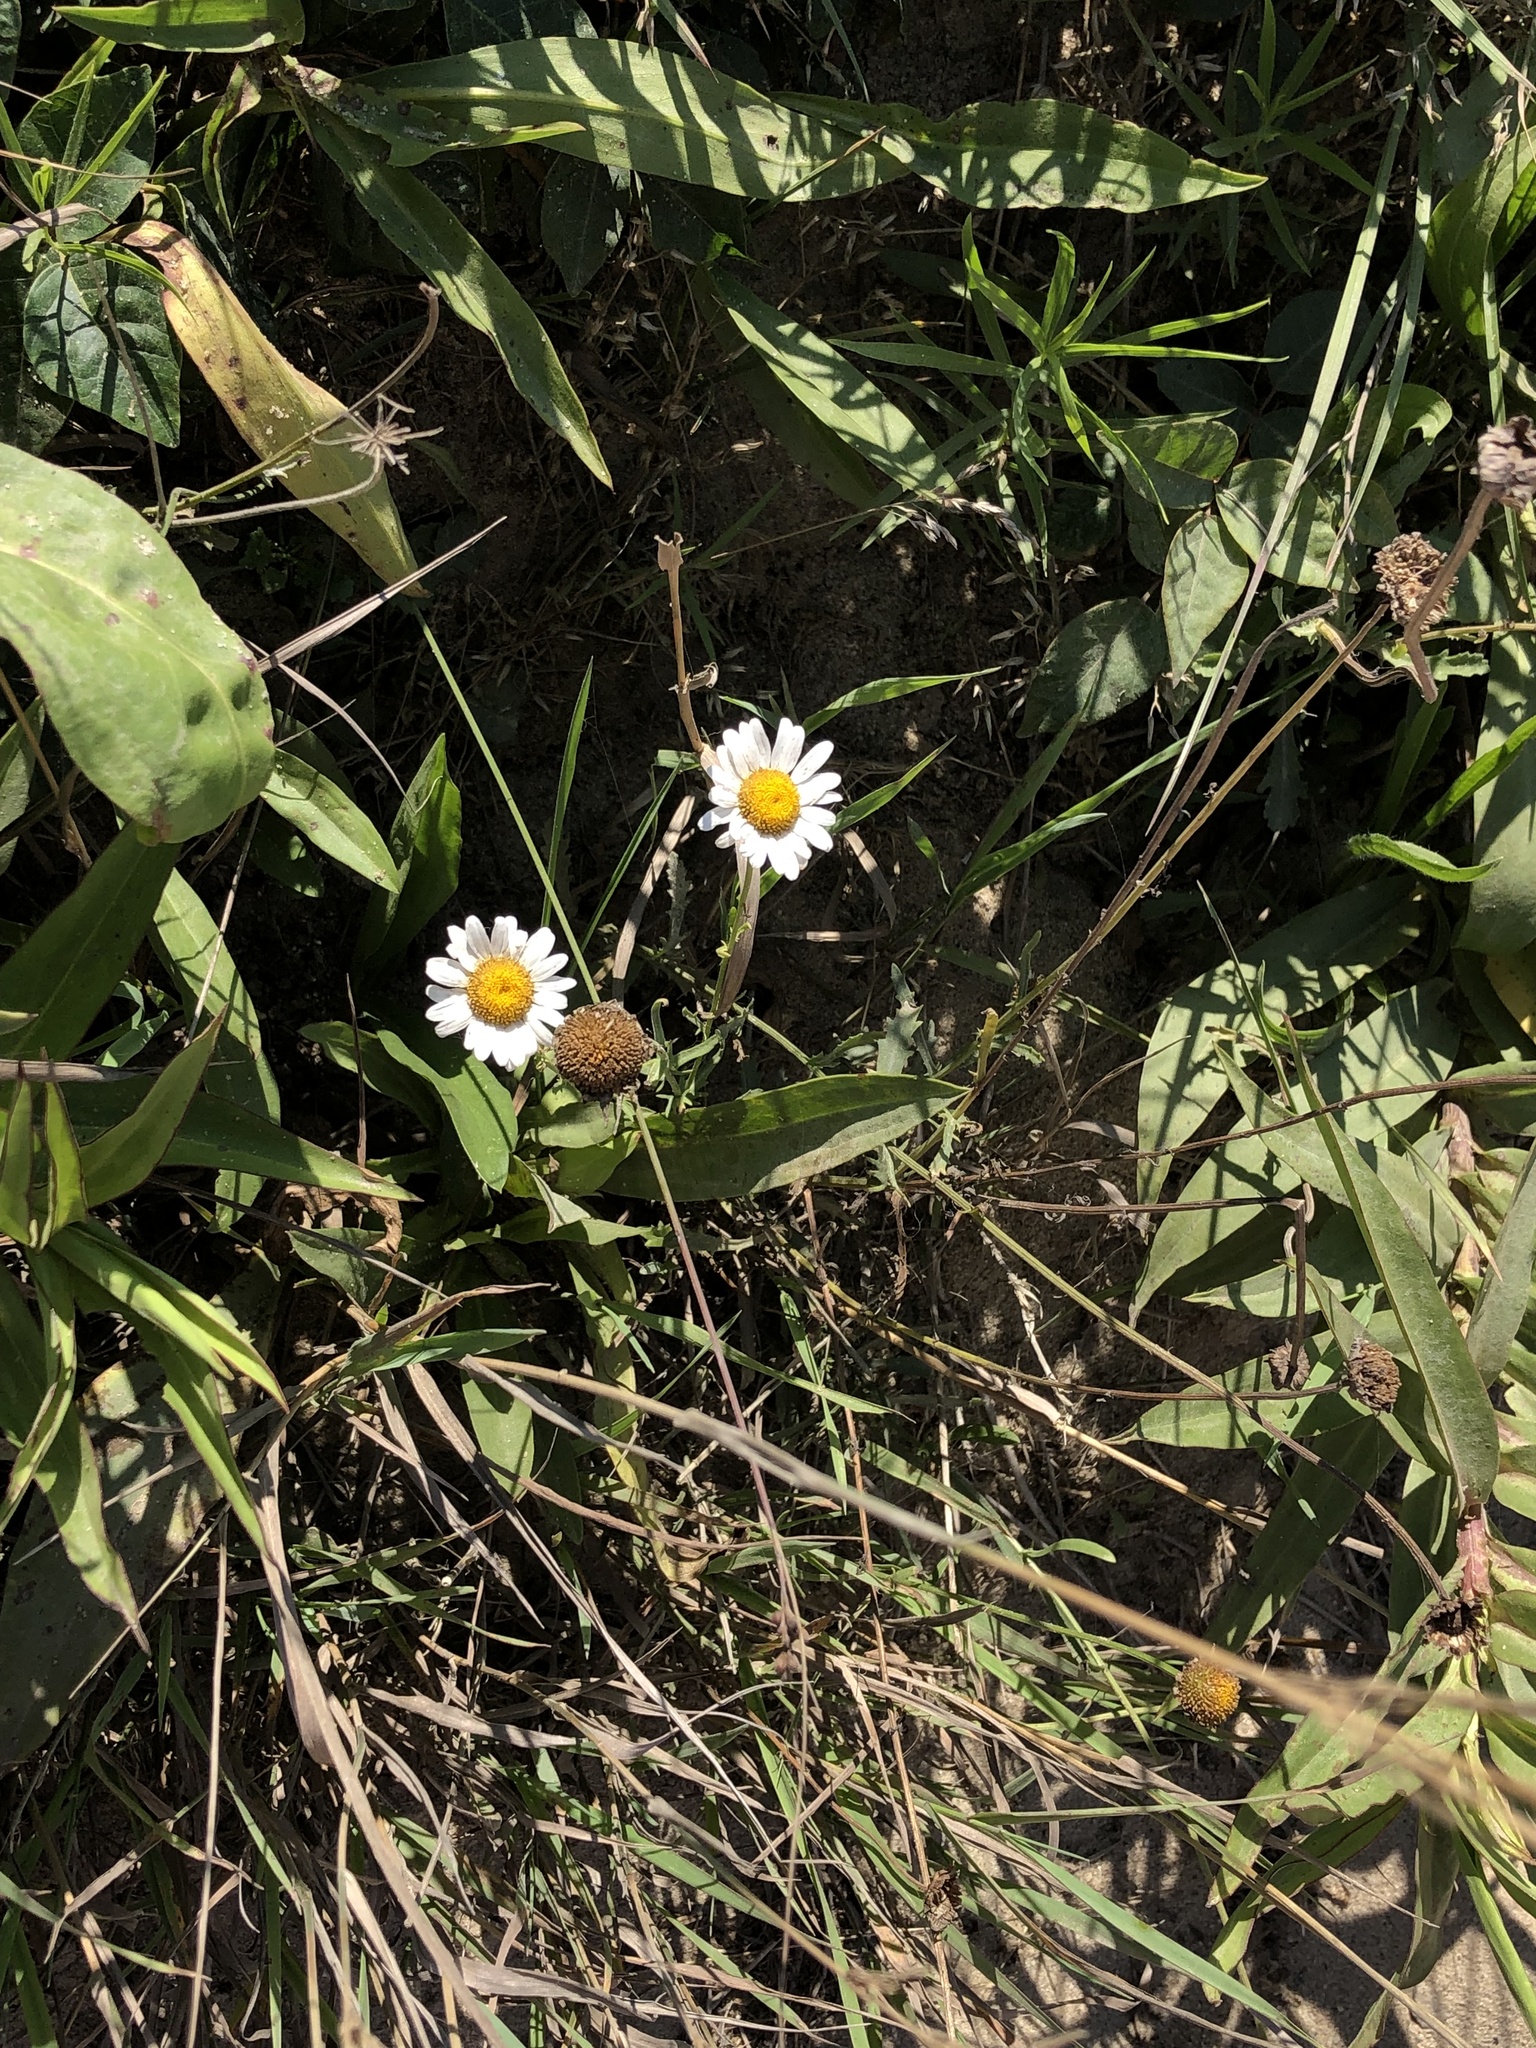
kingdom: Plantae
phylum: Tracheophyta
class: Magnoliopsida
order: Asterales
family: Asteraceae
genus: Leucanthemum
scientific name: Leucanthemum vulgare
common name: Oxeye daisy
